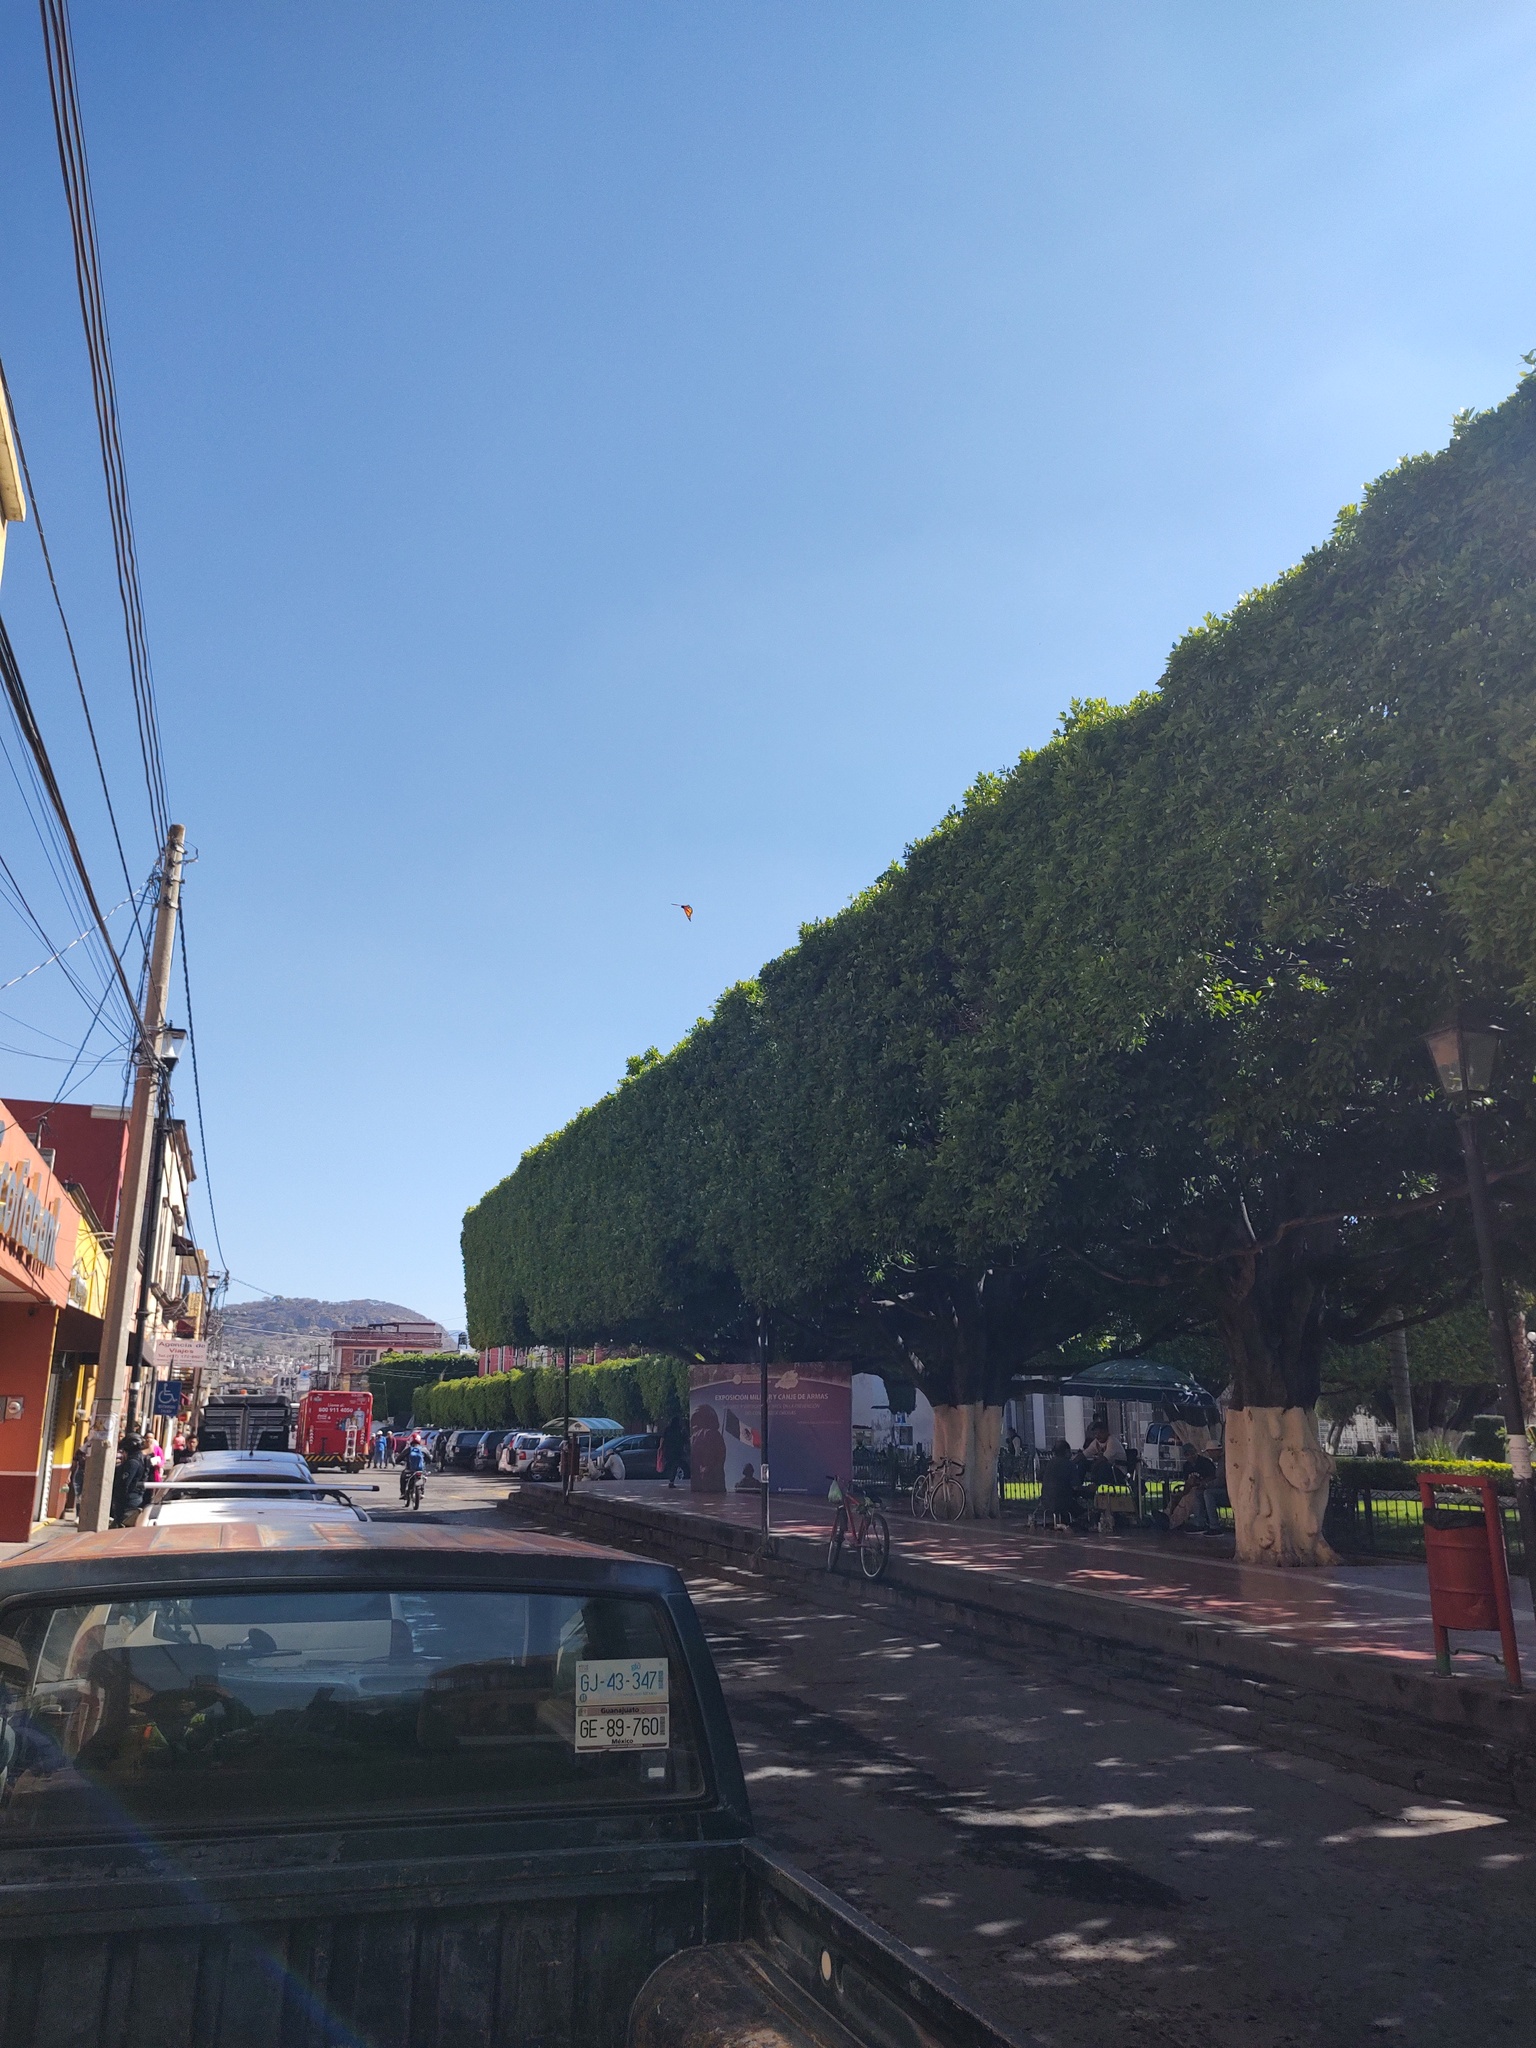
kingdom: Animalia
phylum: Arthropoda
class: Insecta
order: Lepidoptera
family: Nymphalidae
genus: Danaus
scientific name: Danaus plexippus
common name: Monarch
